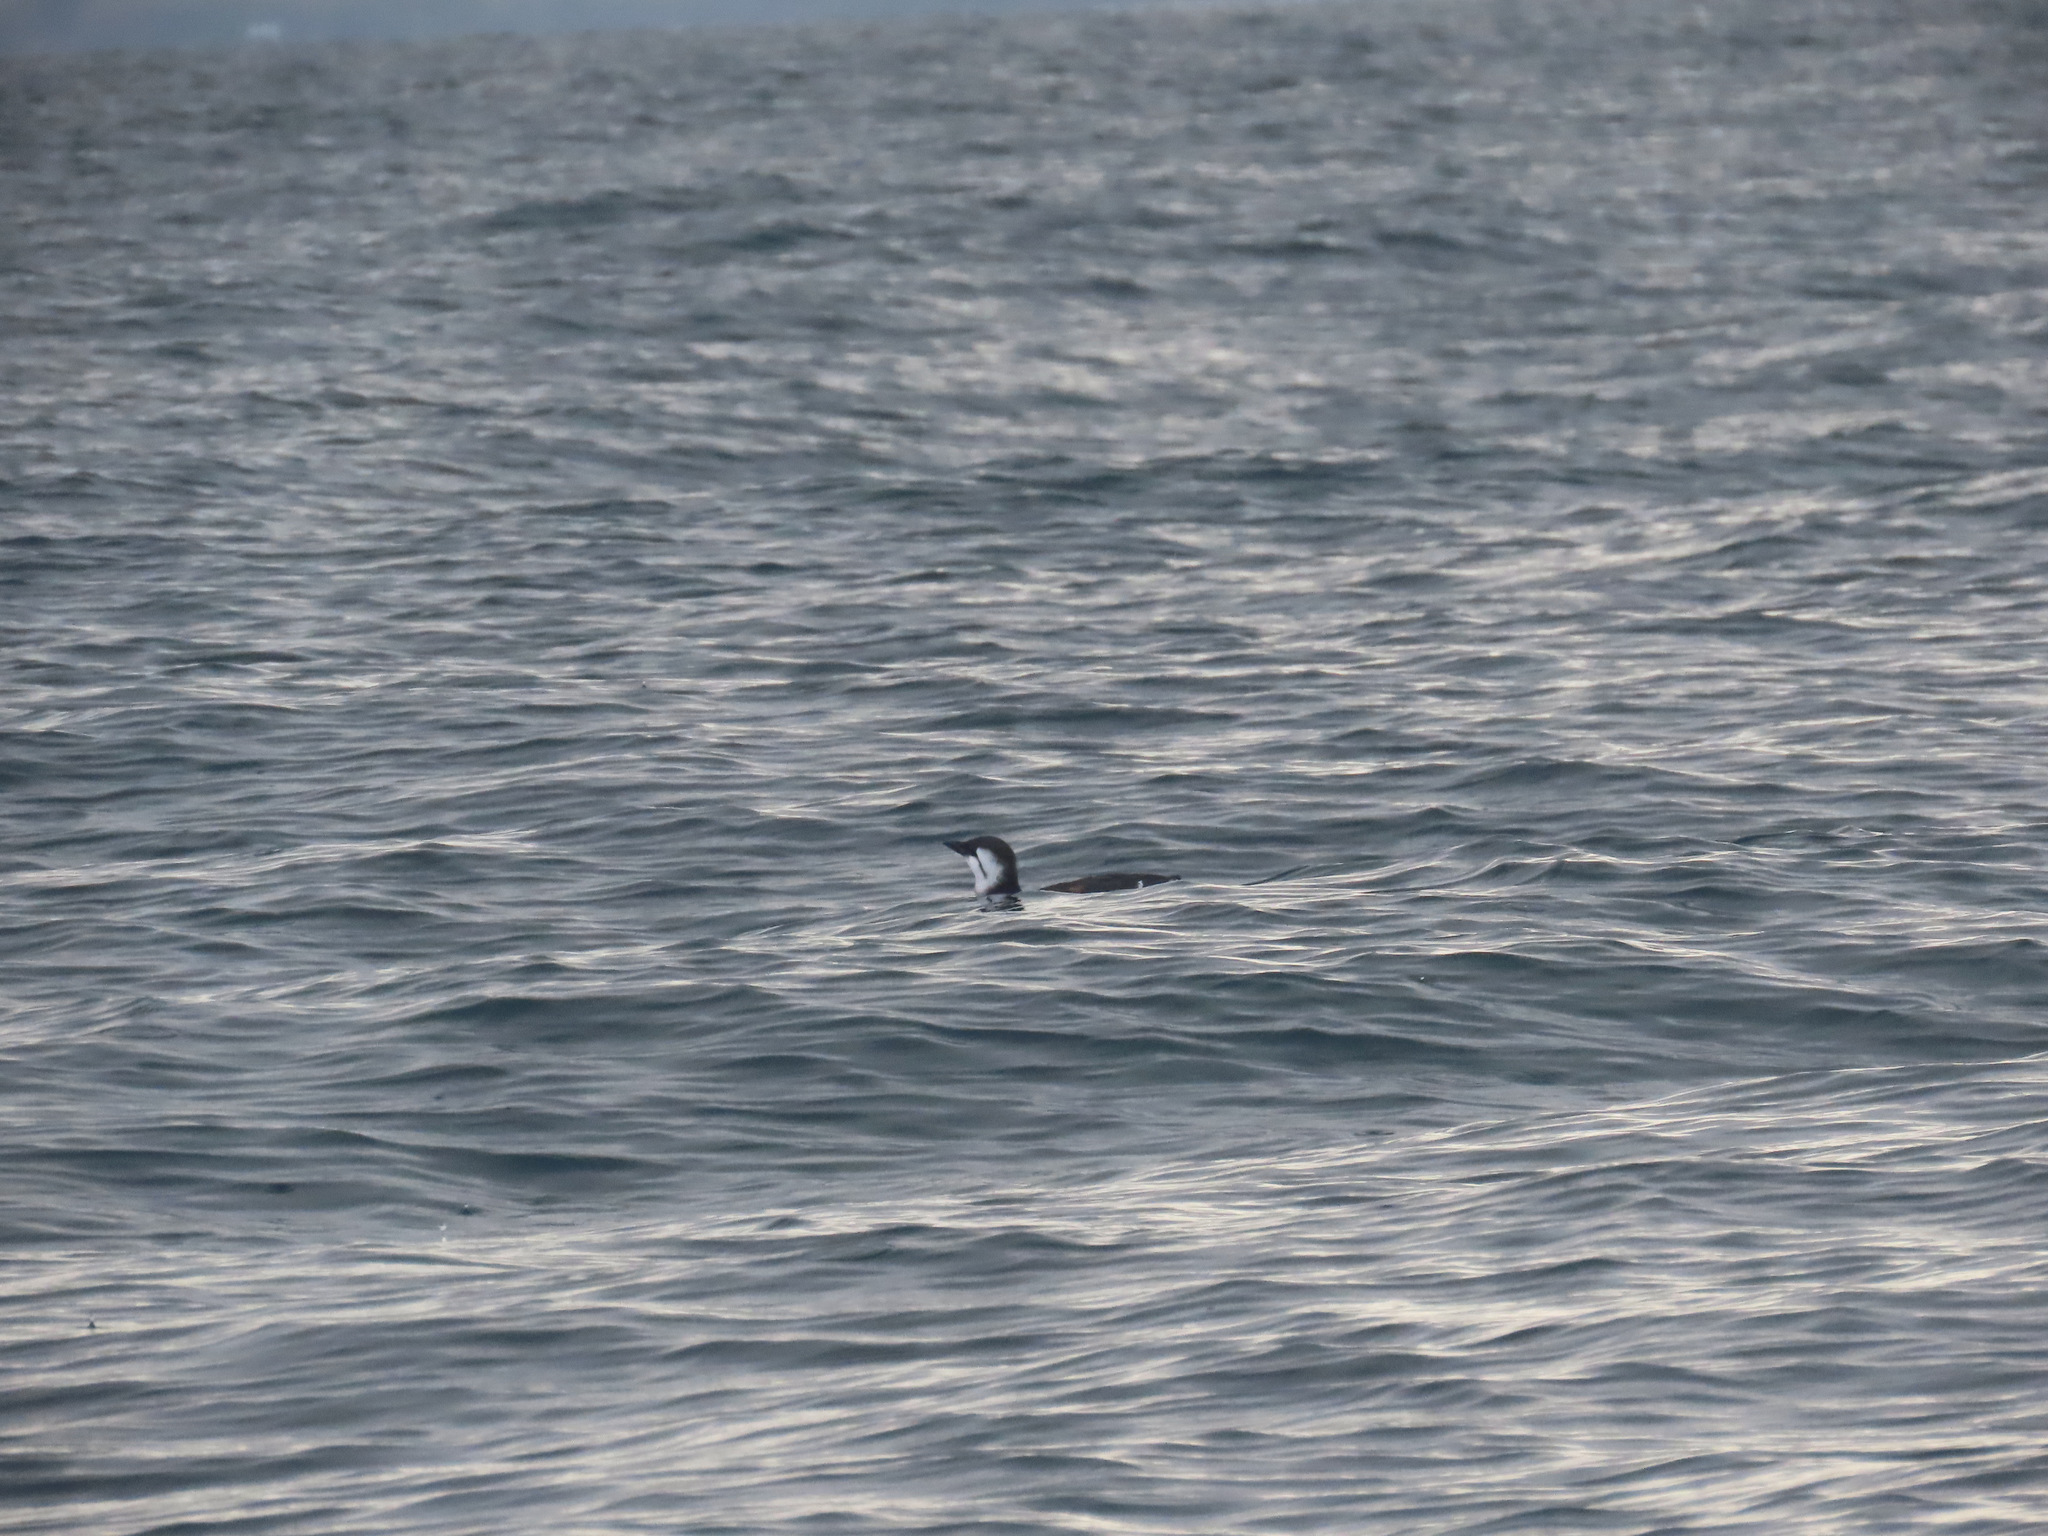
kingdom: Animalia
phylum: Chordata
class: Aves
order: Charadriiformes
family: Alcidae
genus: Uria
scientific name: Uria aalge
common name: Common murre
